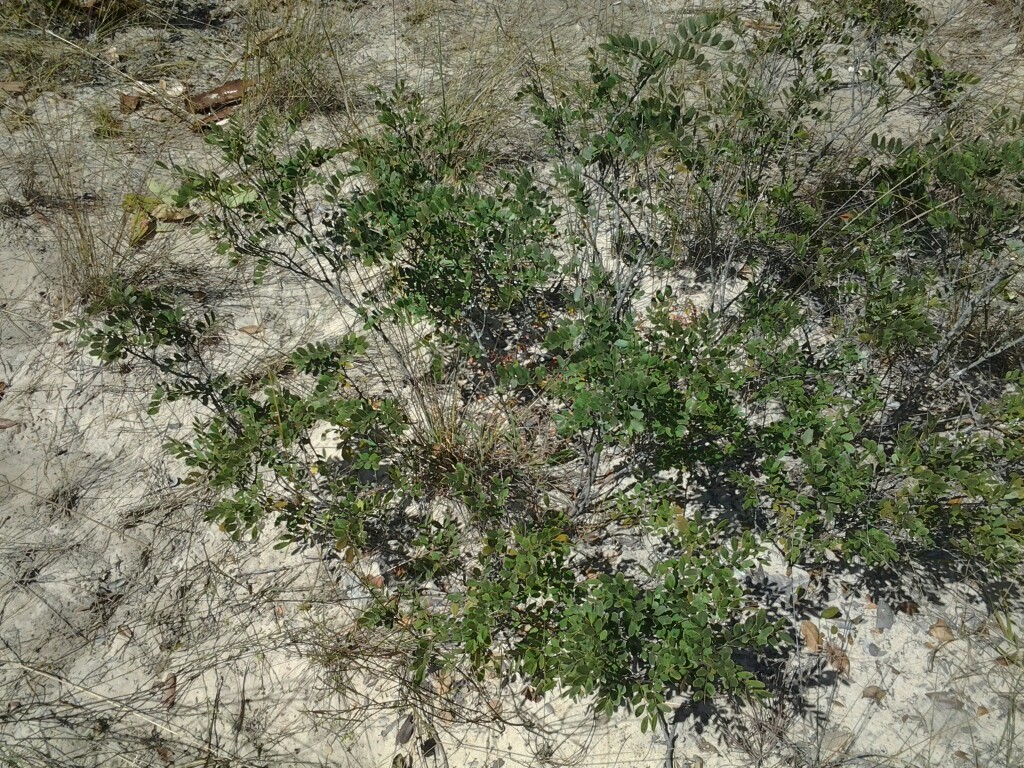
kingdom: Plantae
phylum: Tracheophyta
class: Magnoliopsida
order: Fabales
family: Fabaceae
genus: Copaifera
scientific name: Copaifera baumiana
